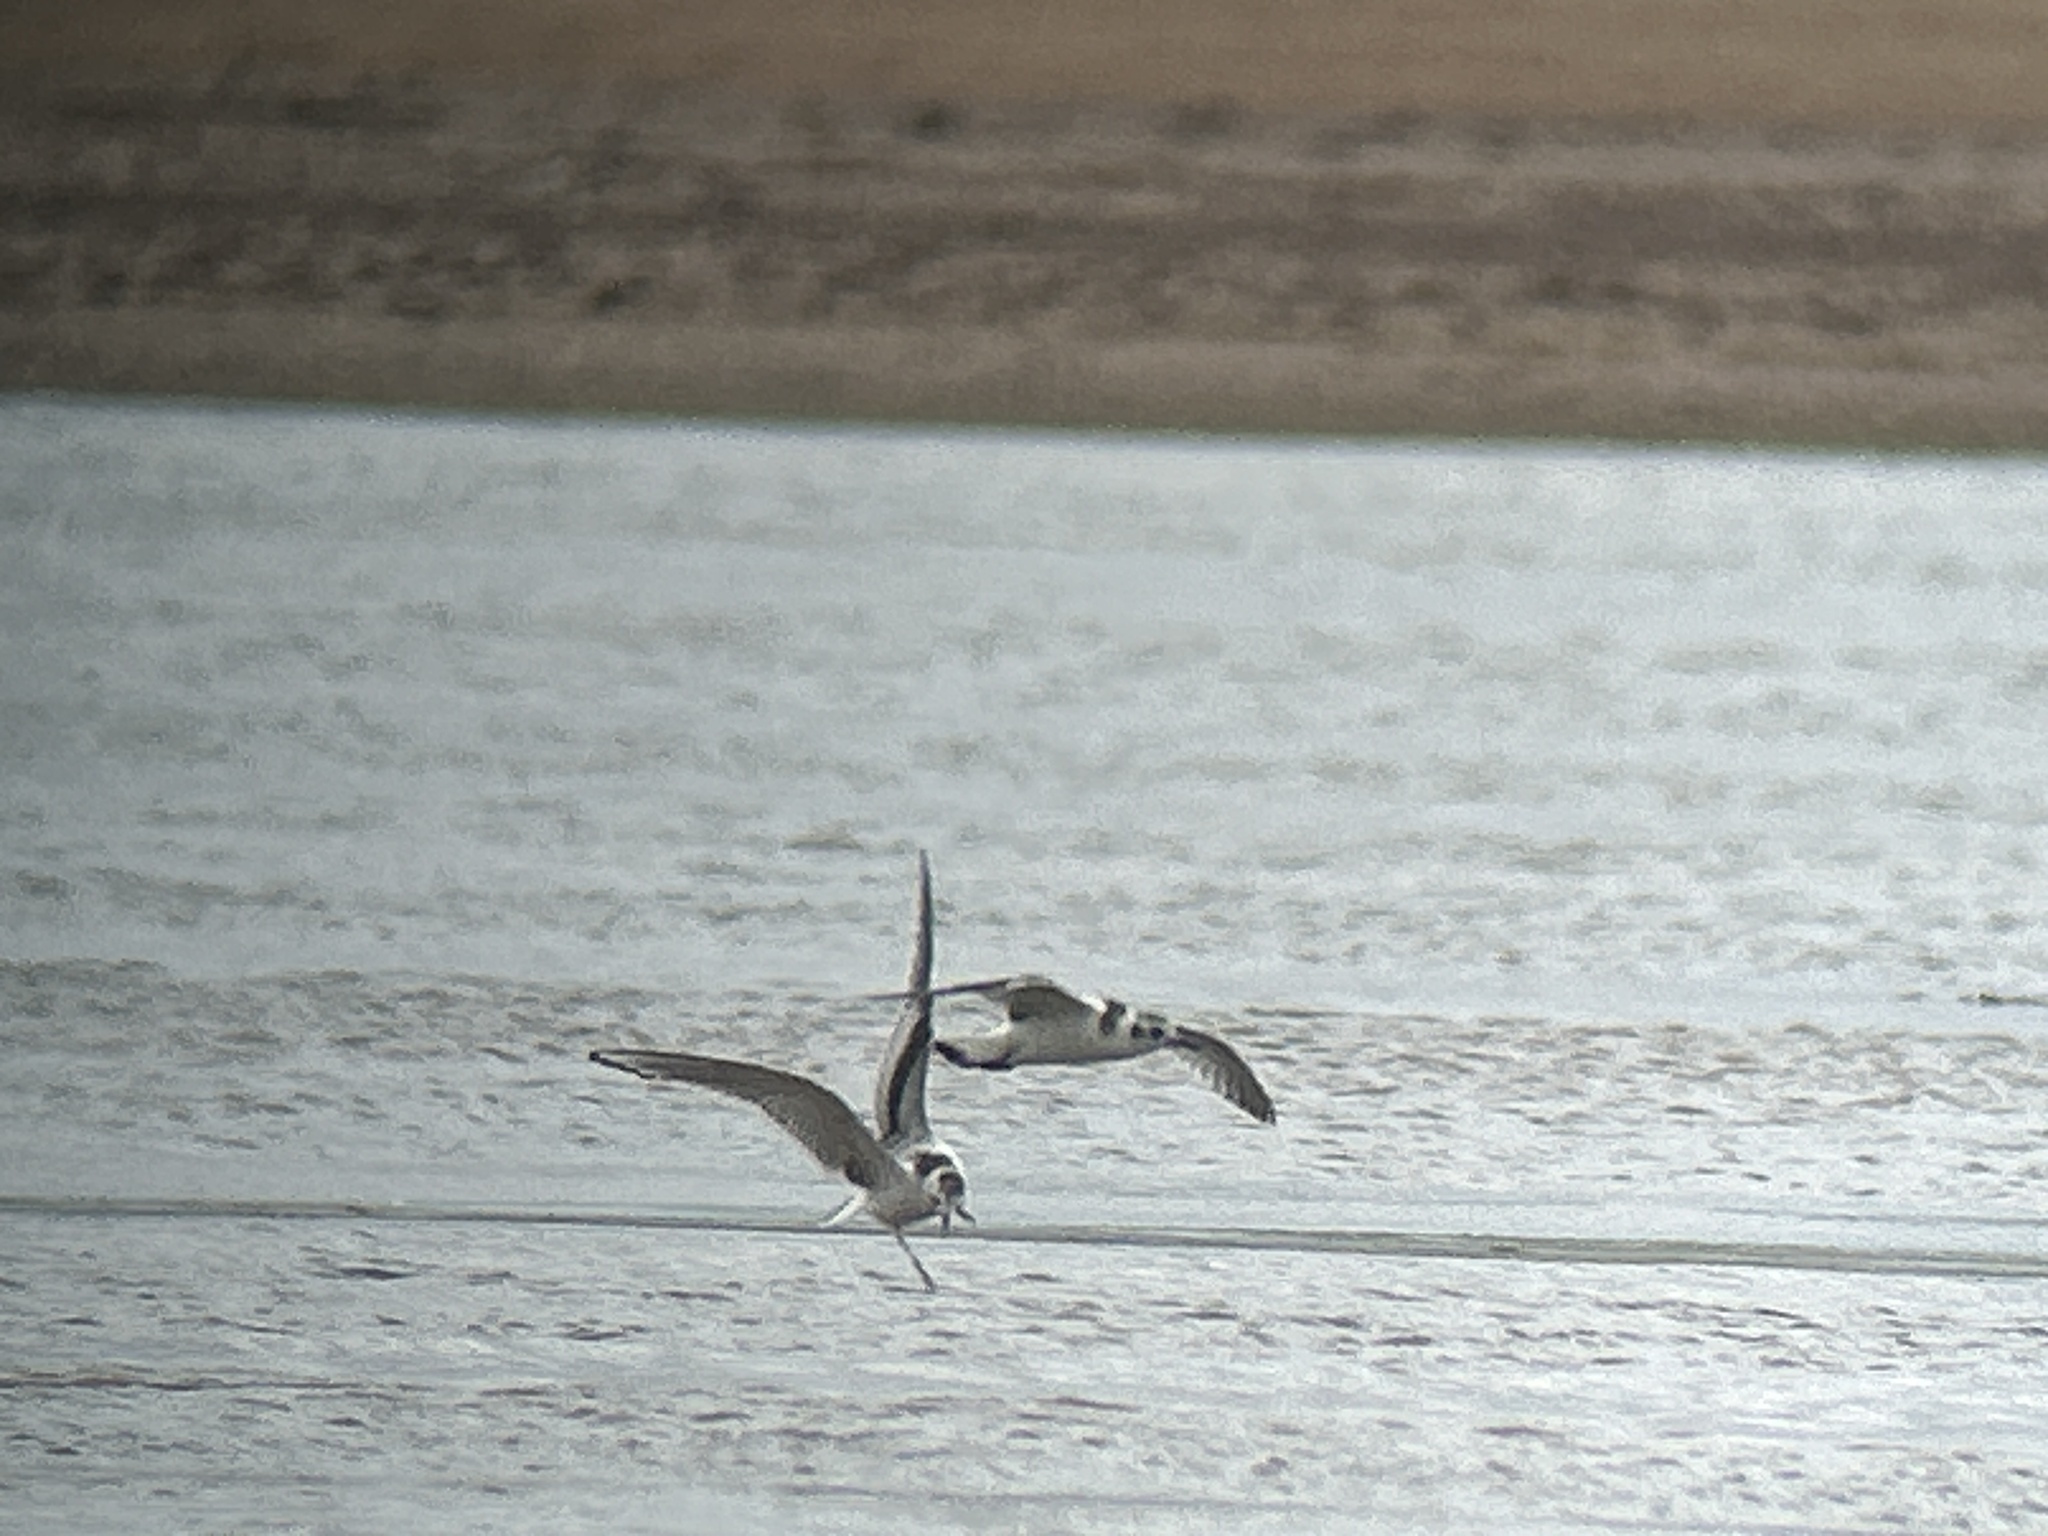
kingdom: Animalia
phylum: Chordata
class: Aves
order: Charadriiformes
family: Laridae
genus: Hydrocoloeus
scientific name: Hydrocoloeus minutus
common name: Little gull
